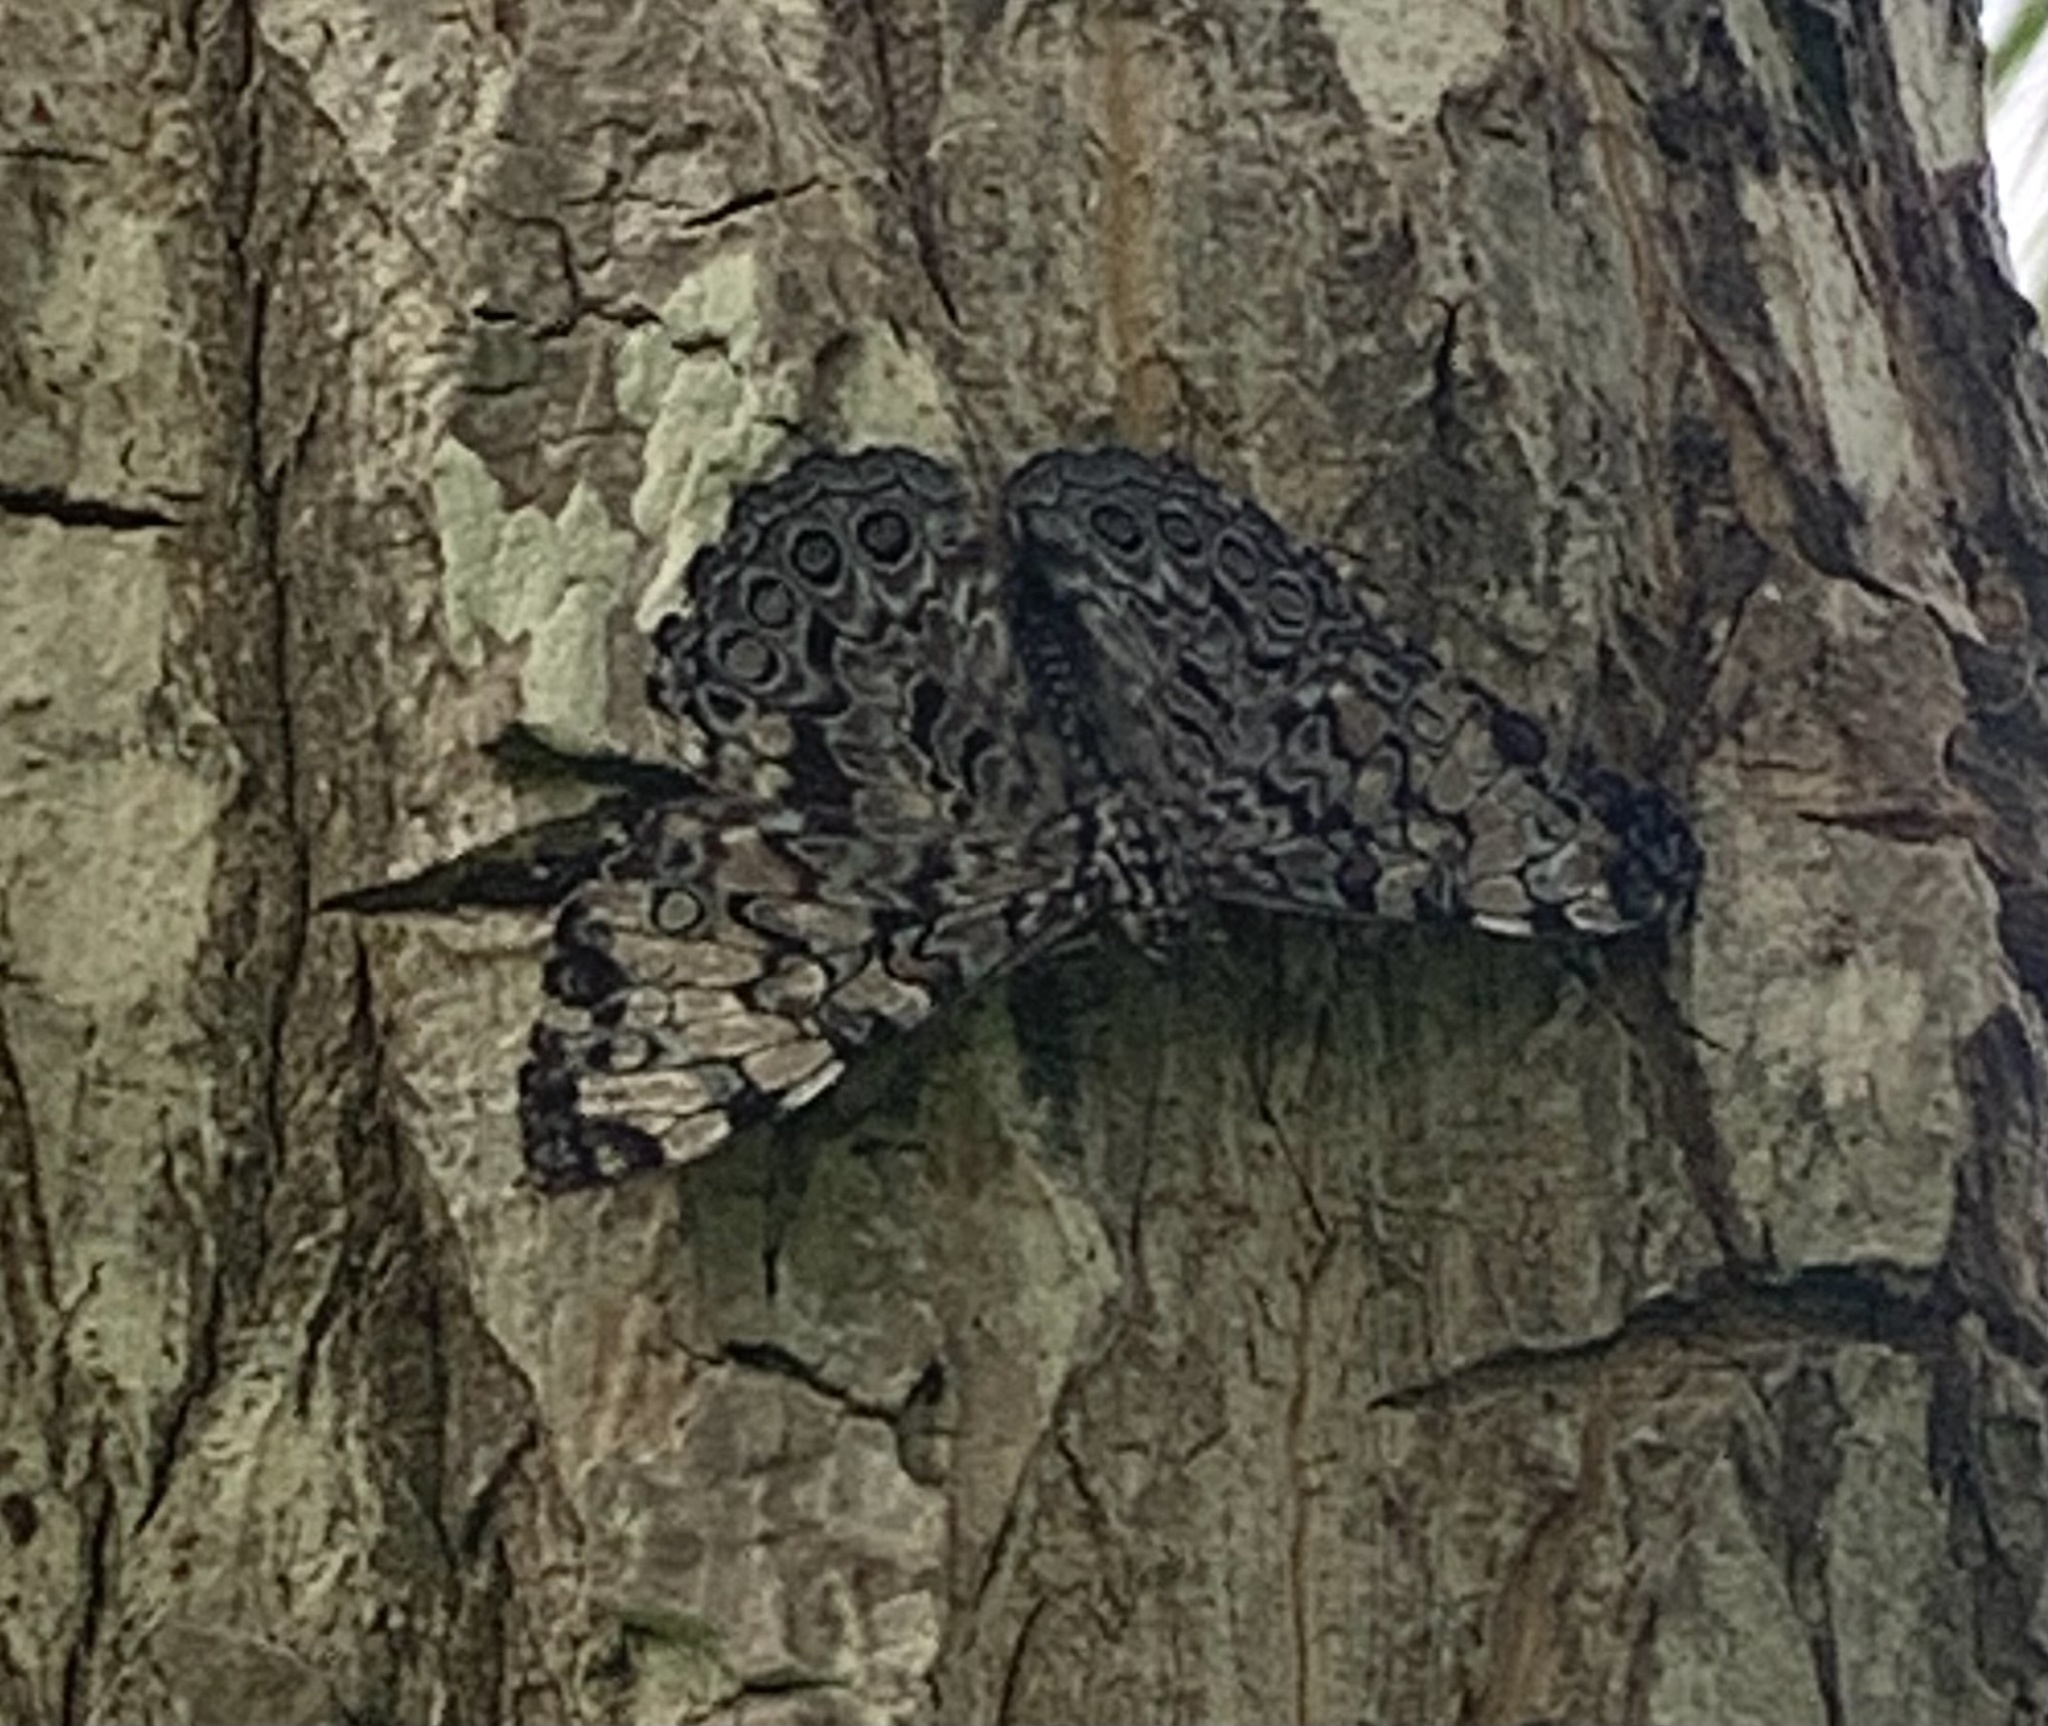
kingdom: Animalia
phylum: Arthropoda
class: Insecta
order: Lepidoptera
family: Nymphalidae
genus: Hamadryas
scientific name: Hamadryas guatemalena
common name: Guatemalan cracker
